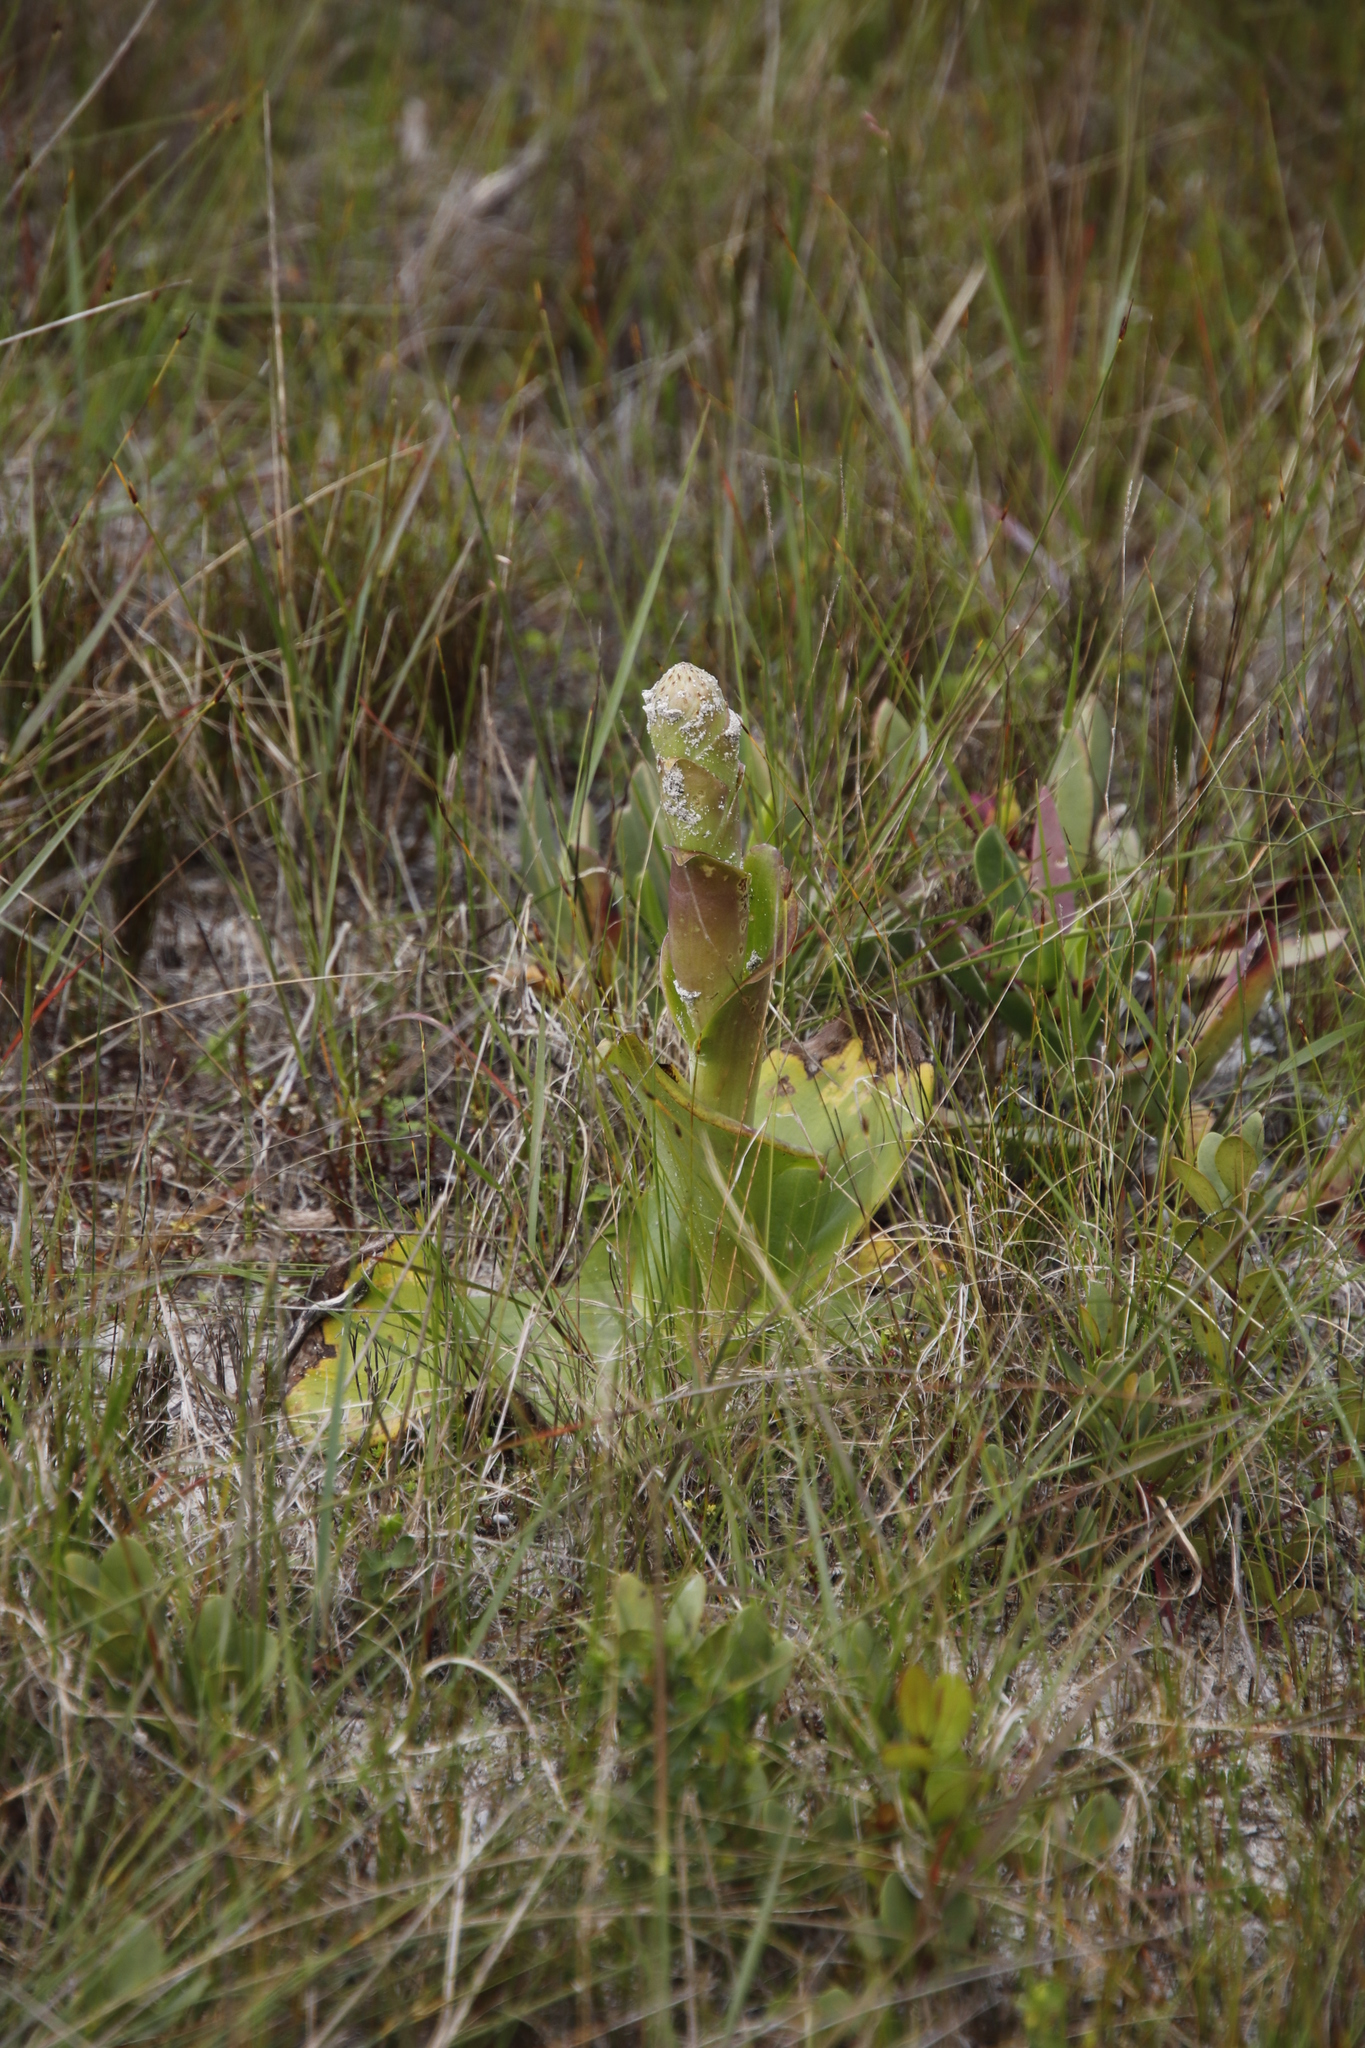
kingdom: Plantae
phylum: Tracheophyta
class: Liliopsida
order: Asparagales
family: Orchidaceae
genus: Satyrium
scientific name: Satyrium carneum
